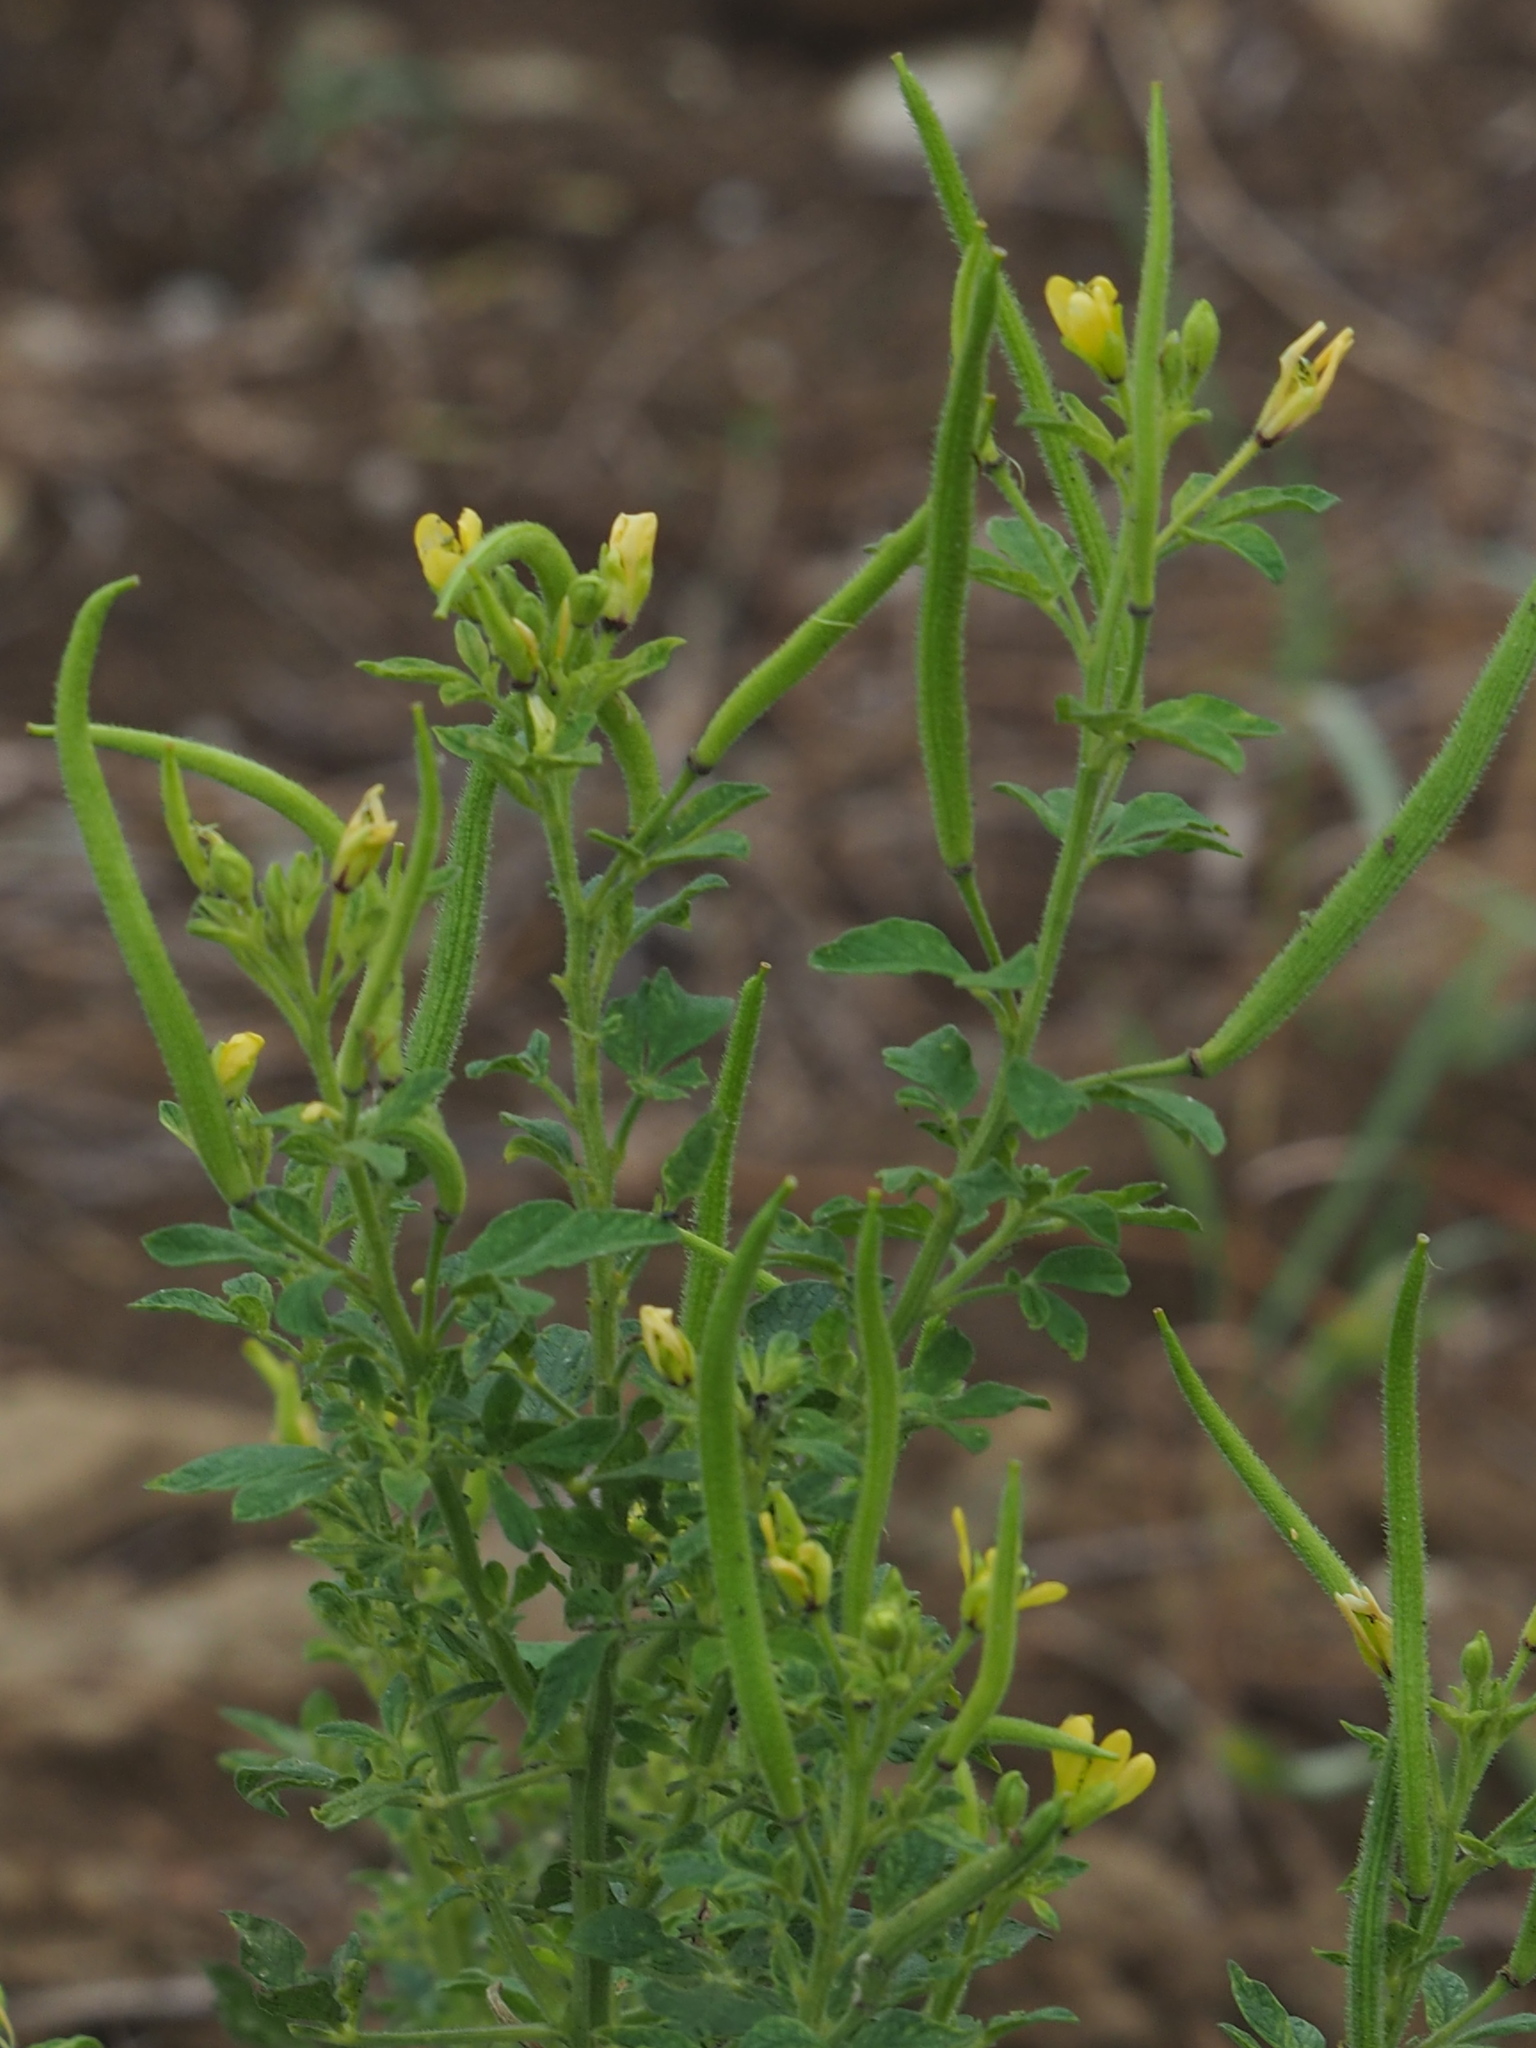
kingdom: Plantae
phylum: Tracheophyta
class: Magnoliopsida
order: Brassicales
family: Cleomaceae
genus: Arivela
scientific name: Arivela viscosa
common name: Asian spiderflower
